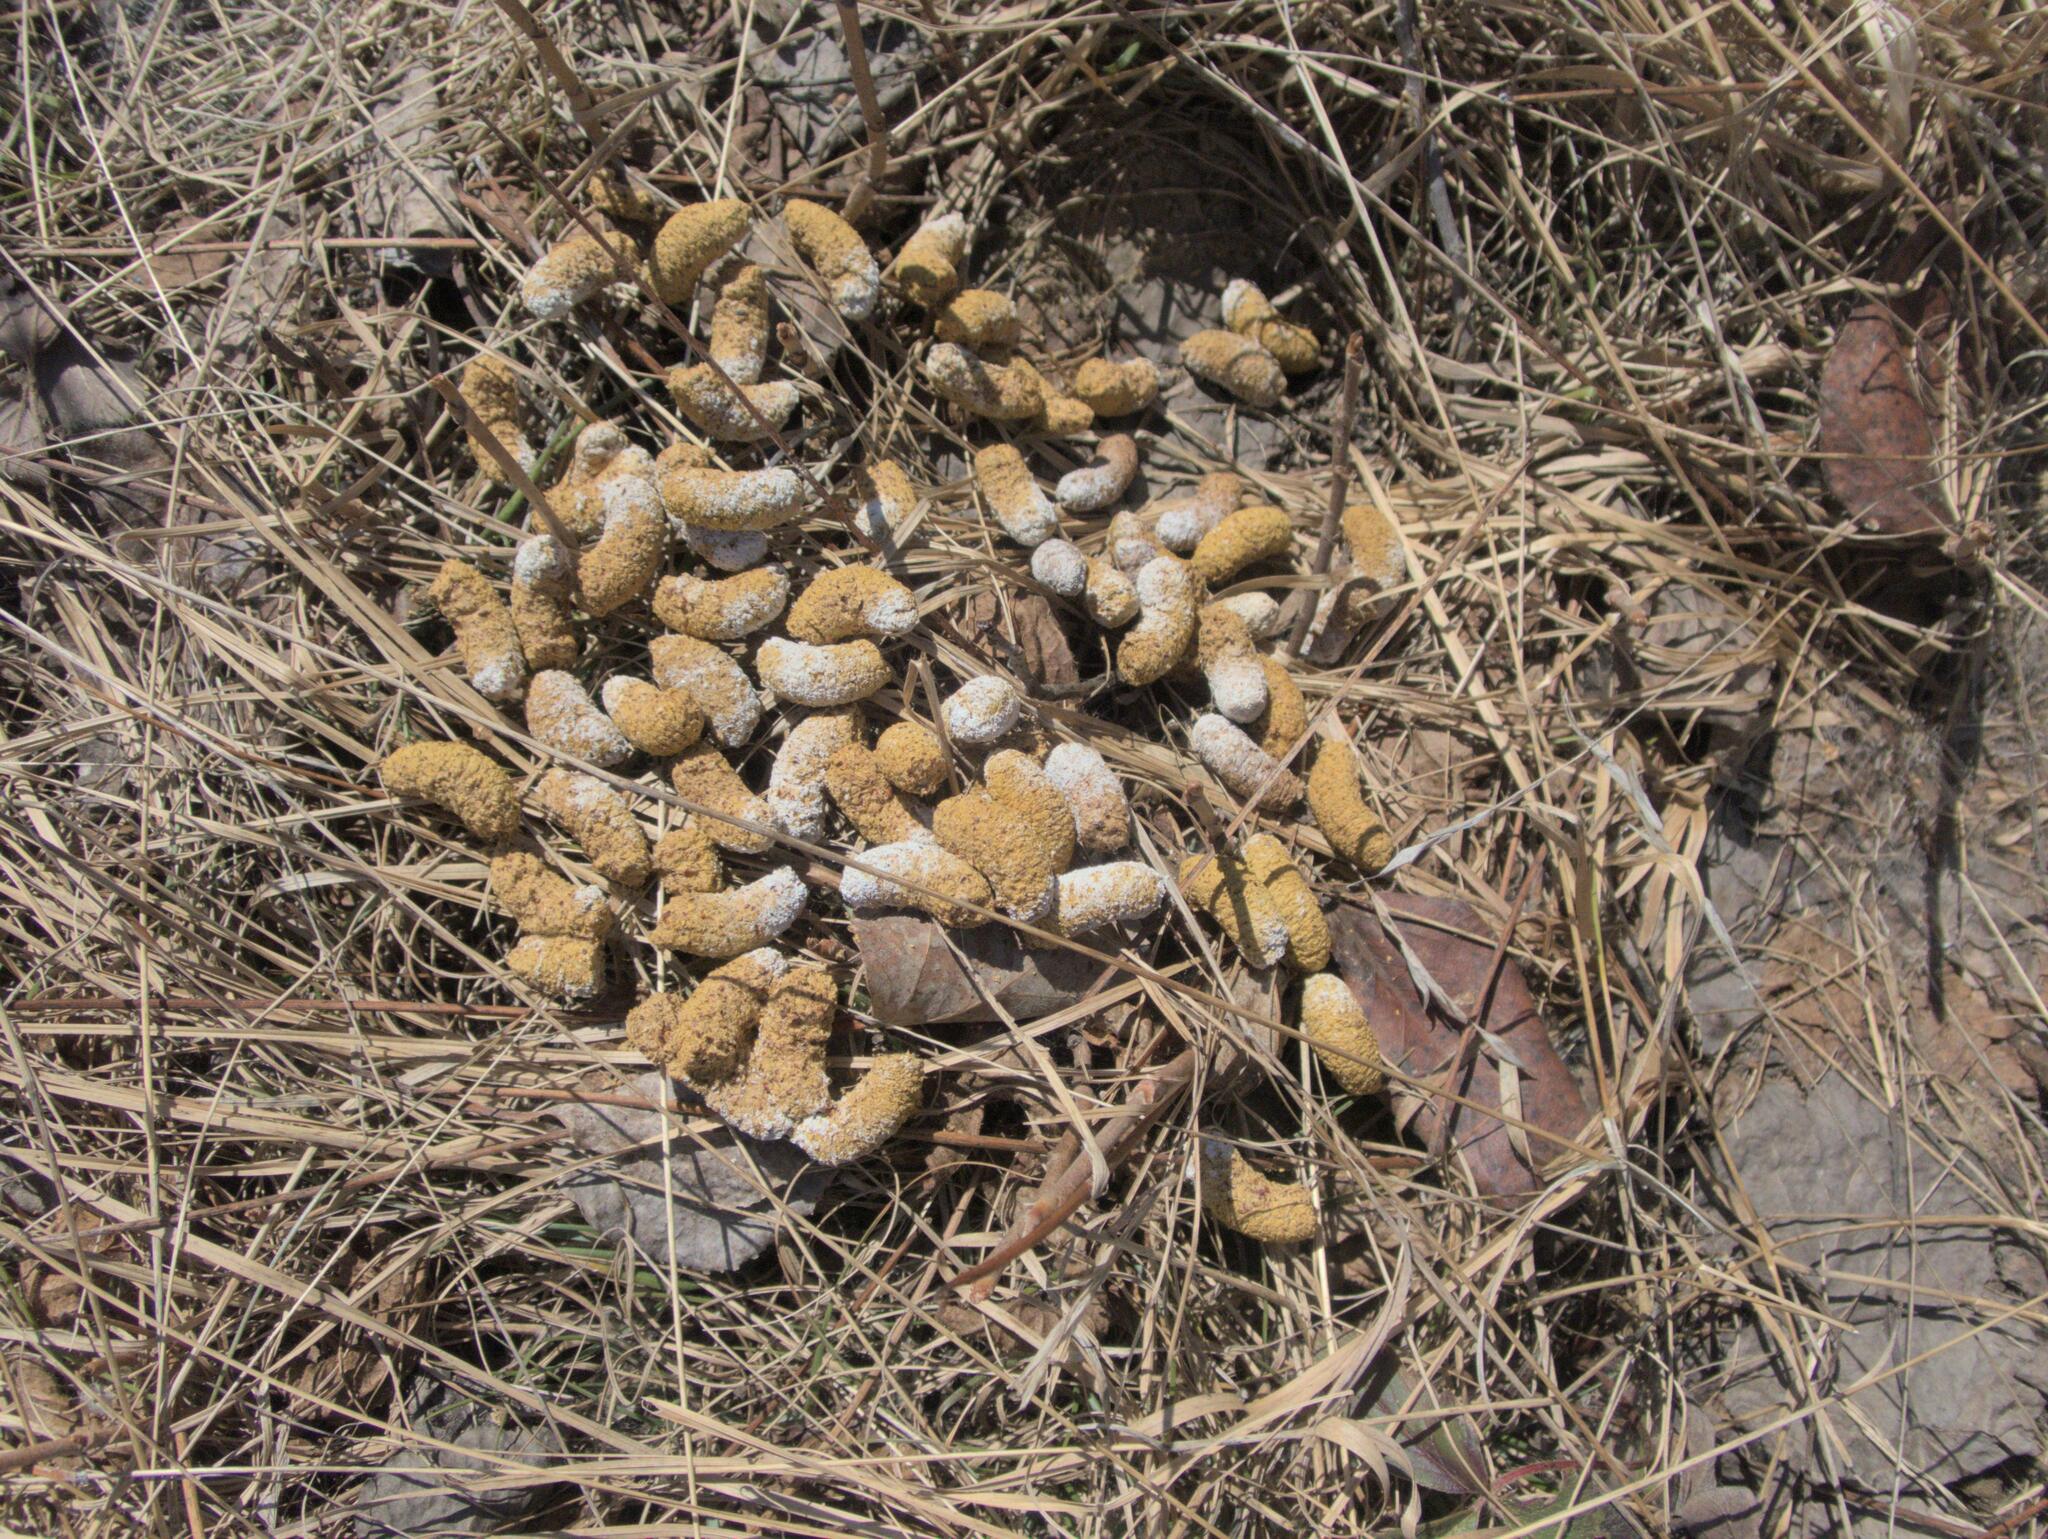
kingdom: Animalia
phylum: Chordata
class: Aves
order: Galliformes
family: Phasianidae
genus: Bonasa
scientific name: Bonasa umbellus
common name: Ruffed grouse
